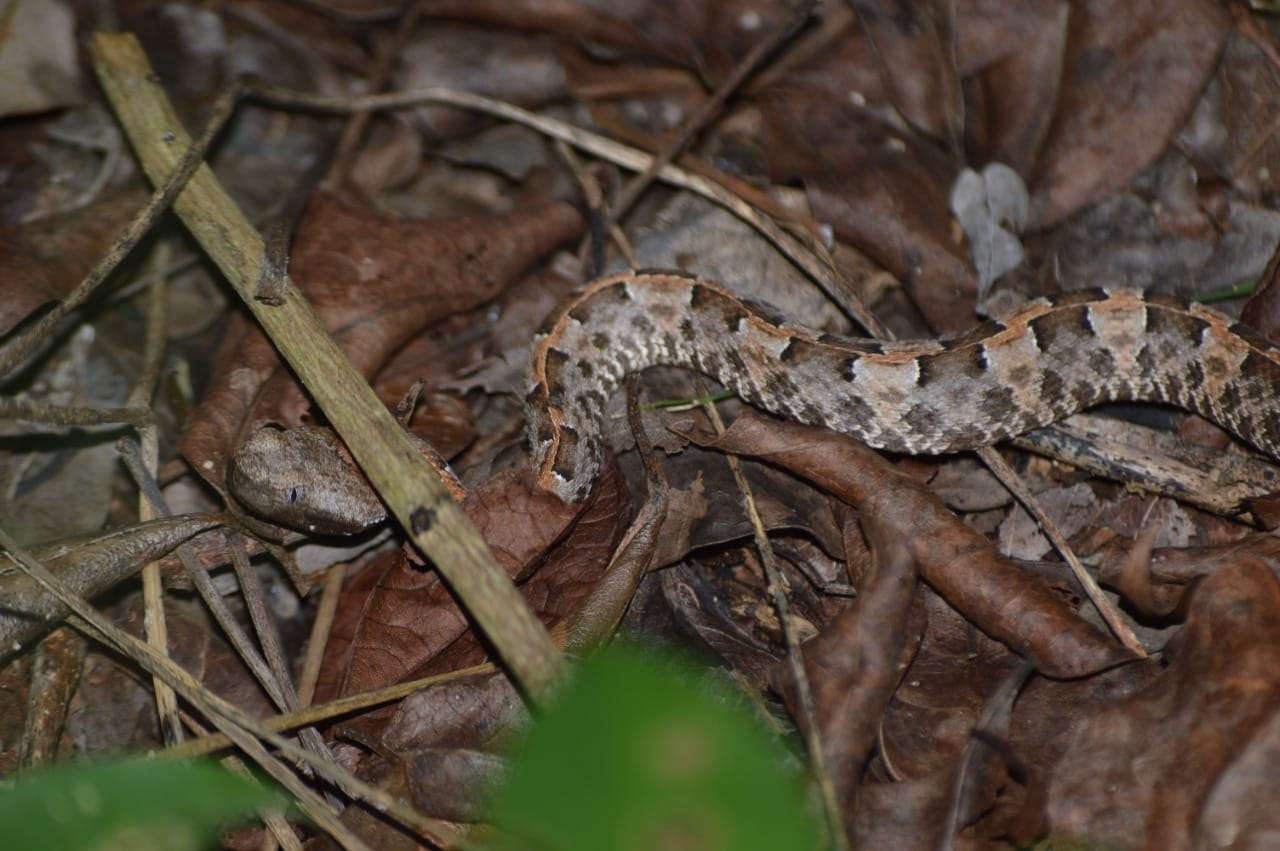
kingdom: Animalia
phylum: Chordata
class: Squamata
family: Viperidae
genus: Porthidium
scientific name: Porthidium yucatanicum
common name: Yucatán hognose viper
